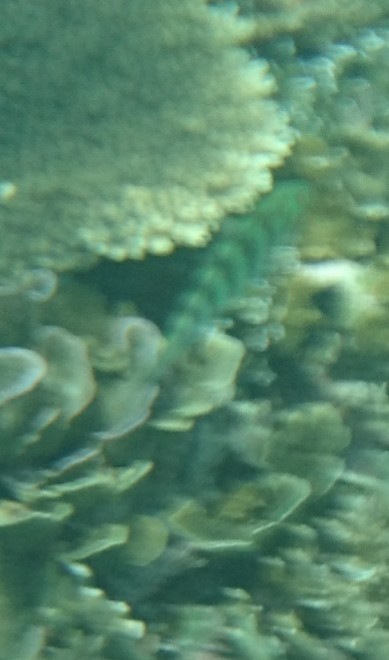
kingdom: Animalia
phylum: Chordata
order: Perciformes
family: Labridae
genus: Thalassoma
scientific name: Thalassoma hardwicke
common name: Sixbar wrasse
